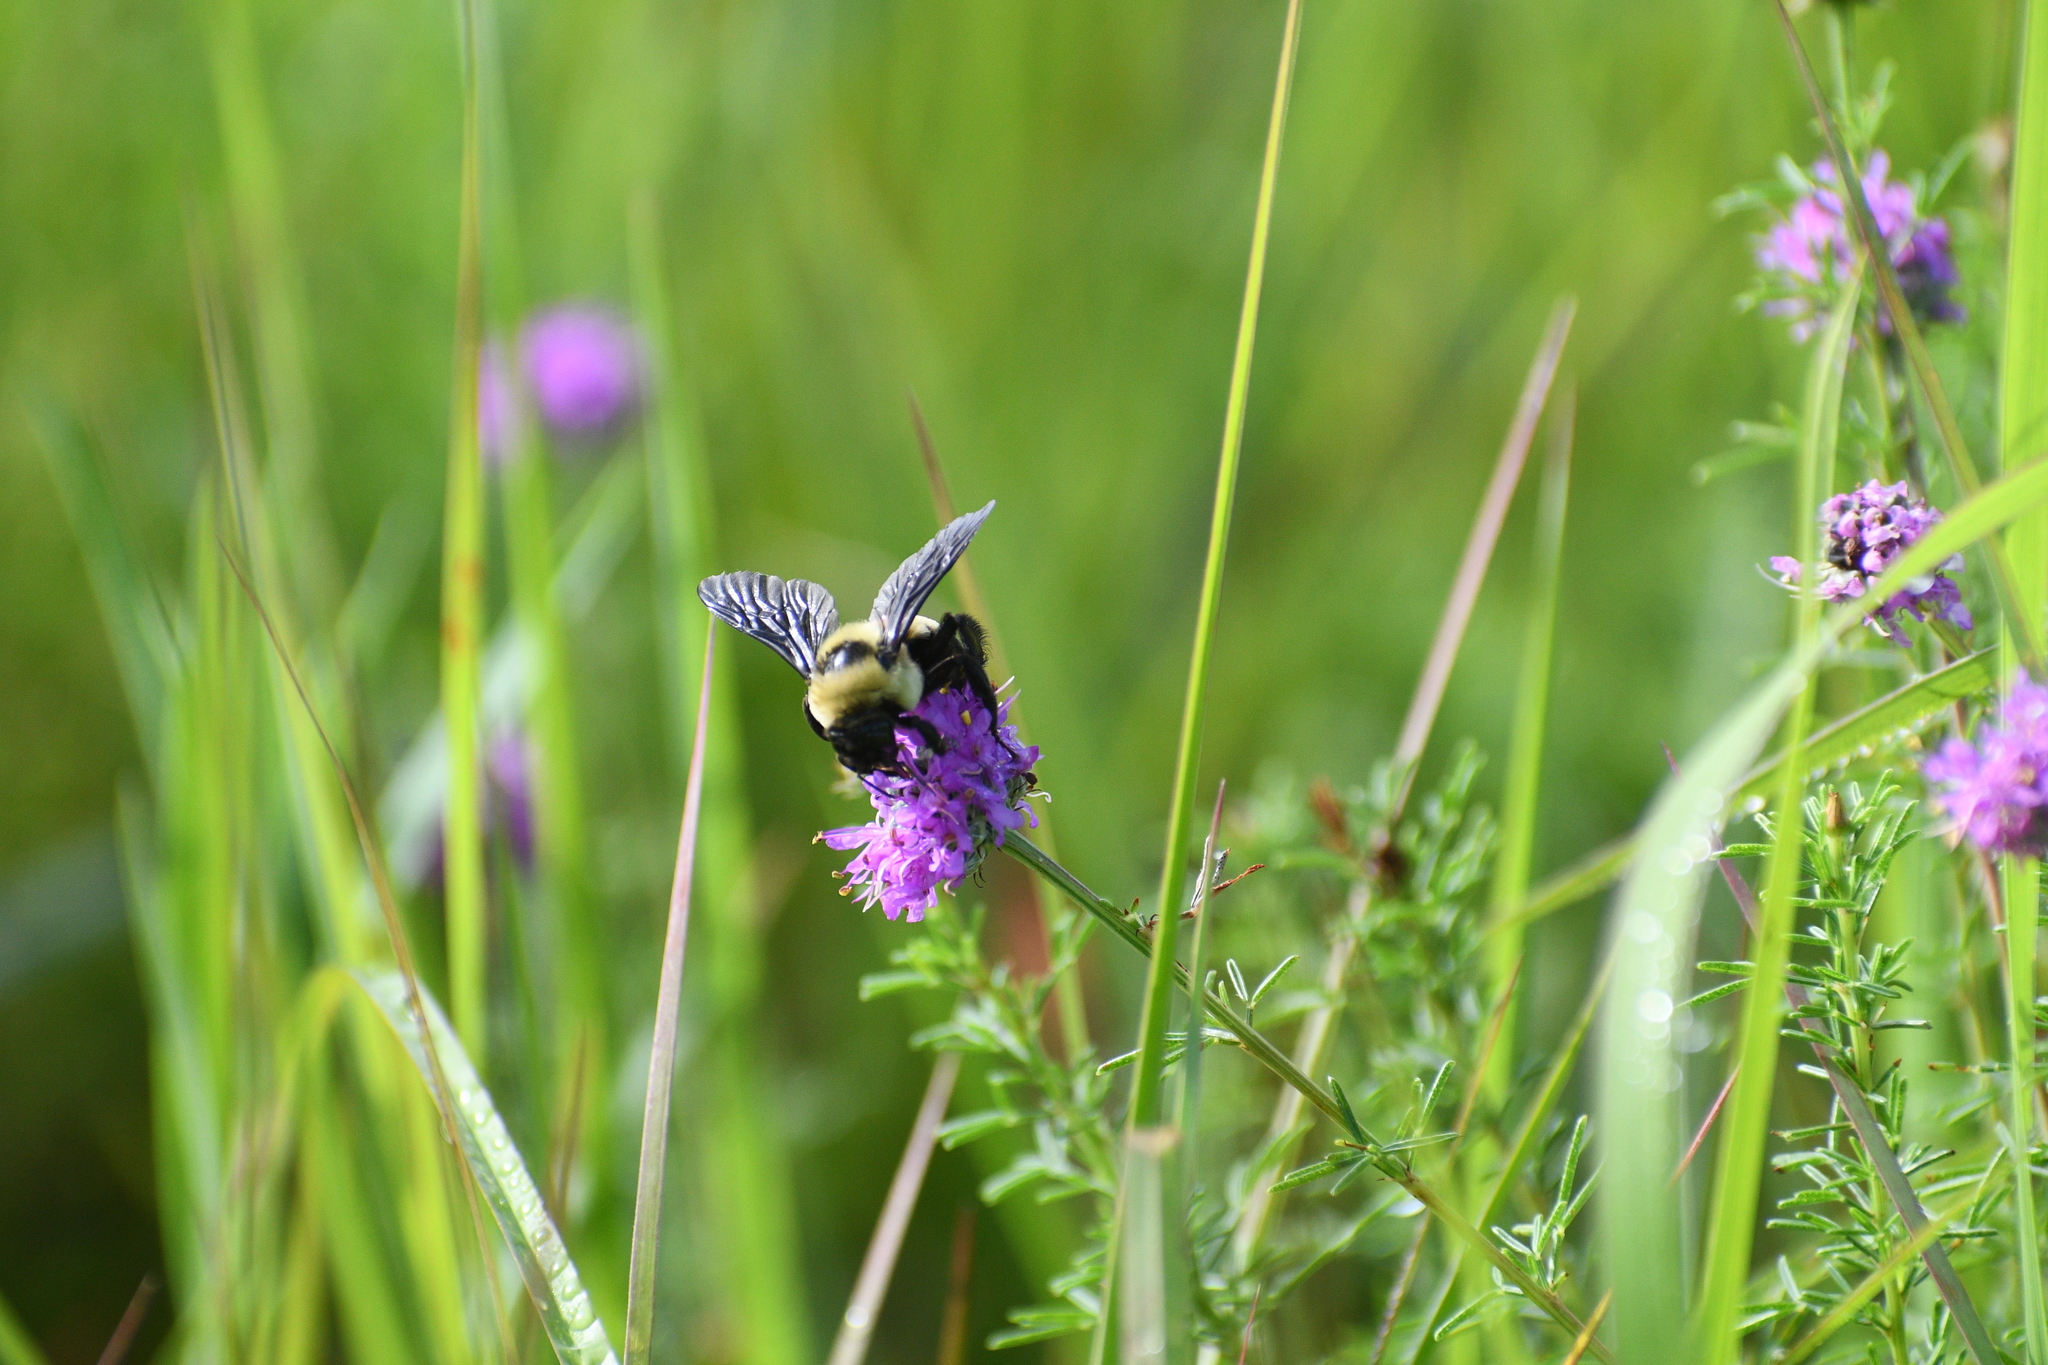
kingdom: Animalia
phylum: Arthropoda
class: Insecta
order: Hymenoptera
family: Apidae
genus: Bombus
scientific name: Bombus fraternus
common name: Southern plains bumble bee
